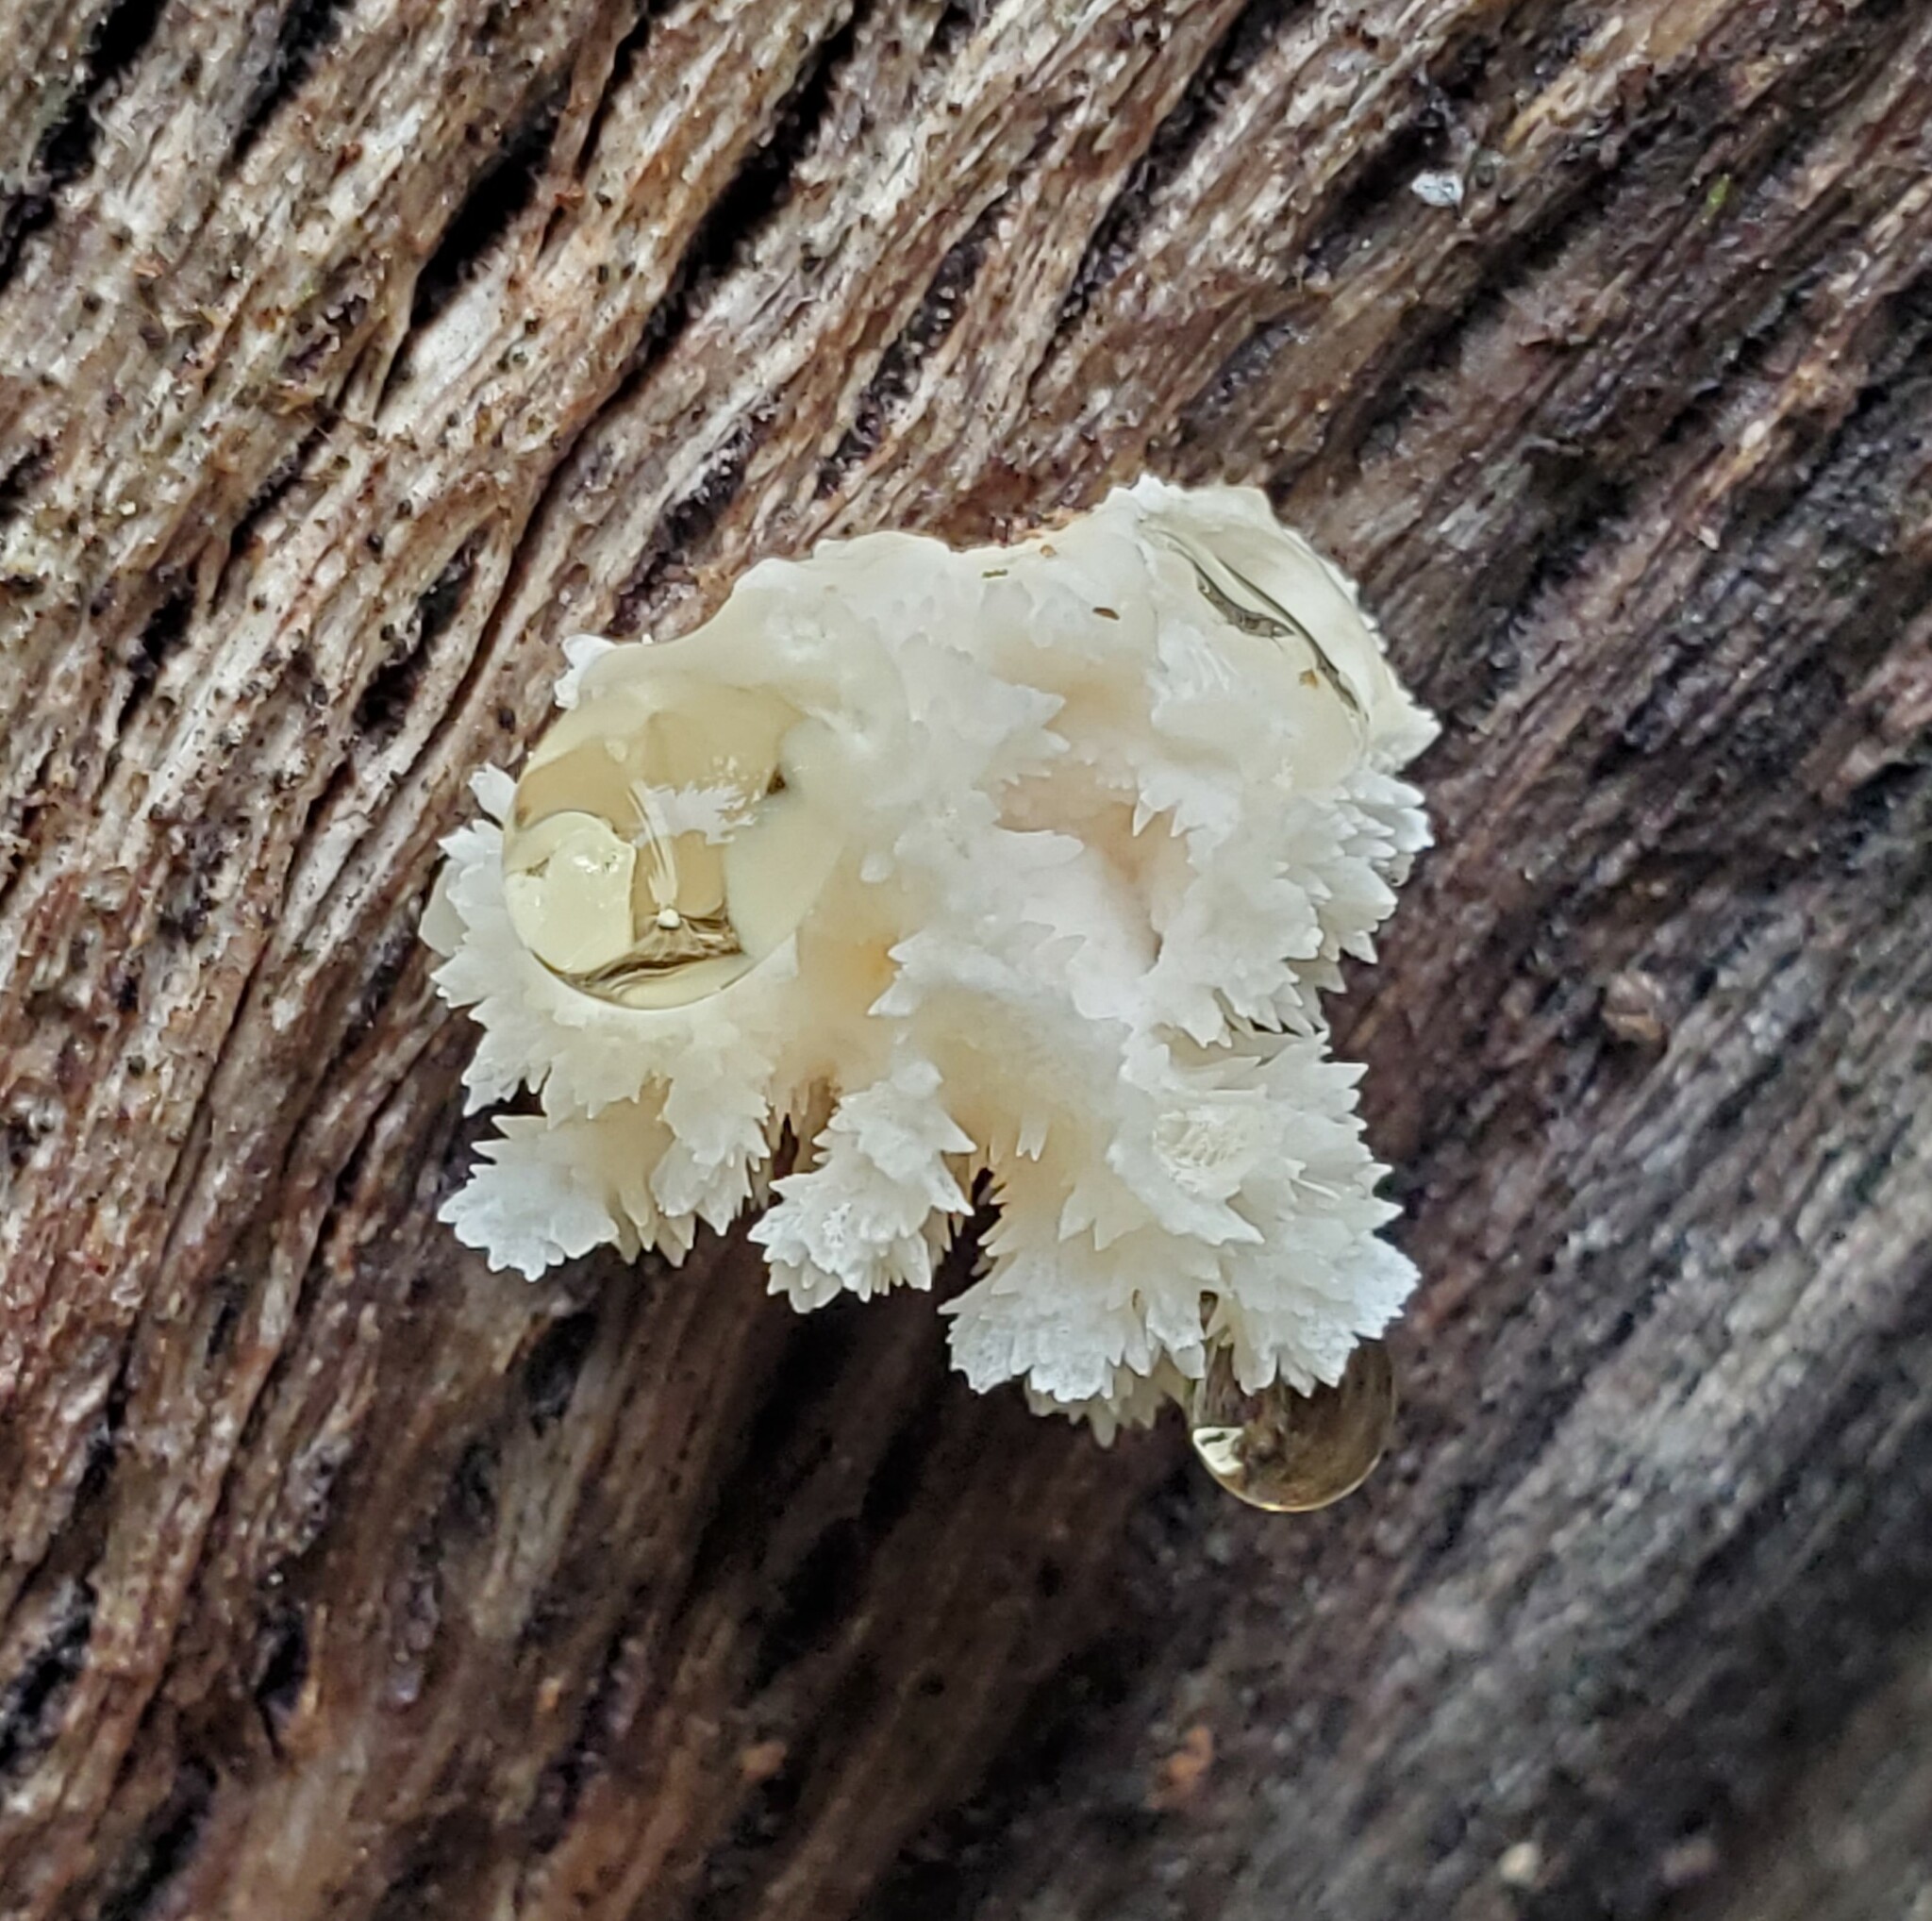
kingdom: Fungi
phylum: Basidiomycota
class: Agaricomycetes
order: Russulales
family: Hericiaceae
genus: Hericium
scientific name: Hericium coralloides
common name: Coral tooth
